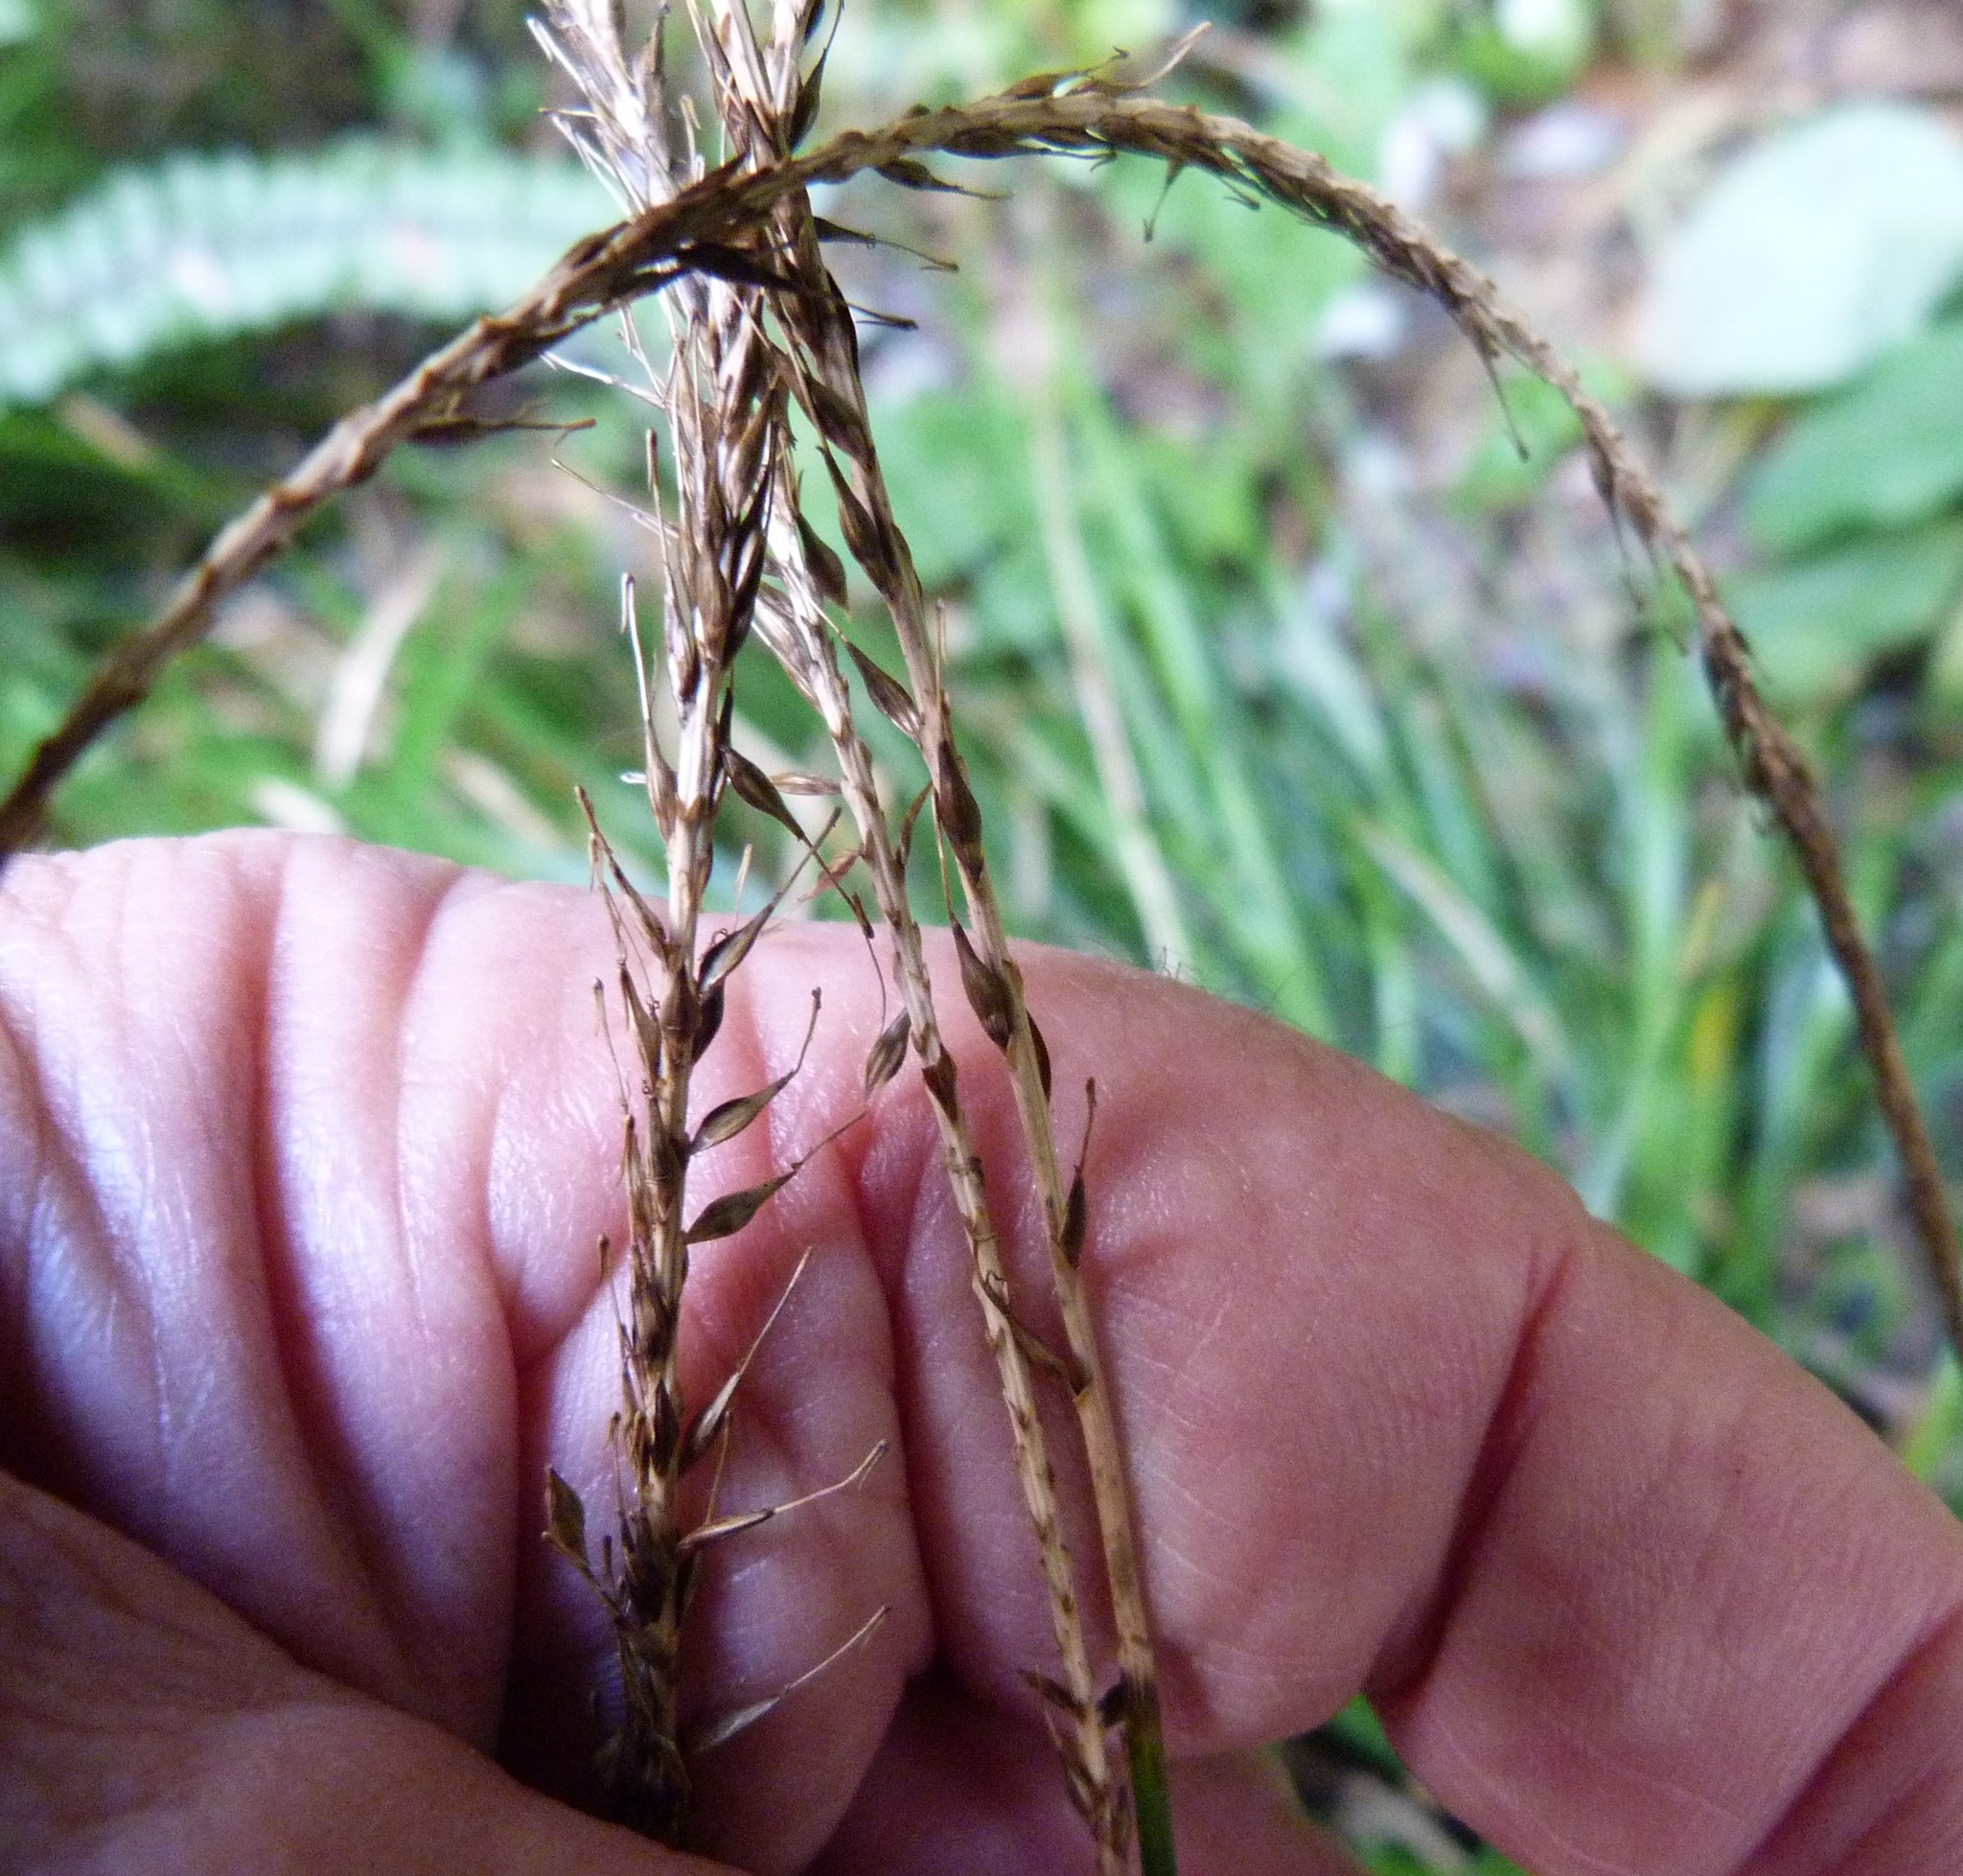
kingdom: Plantae
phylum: Tracheophyta
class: Liliopsida
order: Poales
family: Cyperaceae
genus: Carex
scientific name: Carex uncinata
